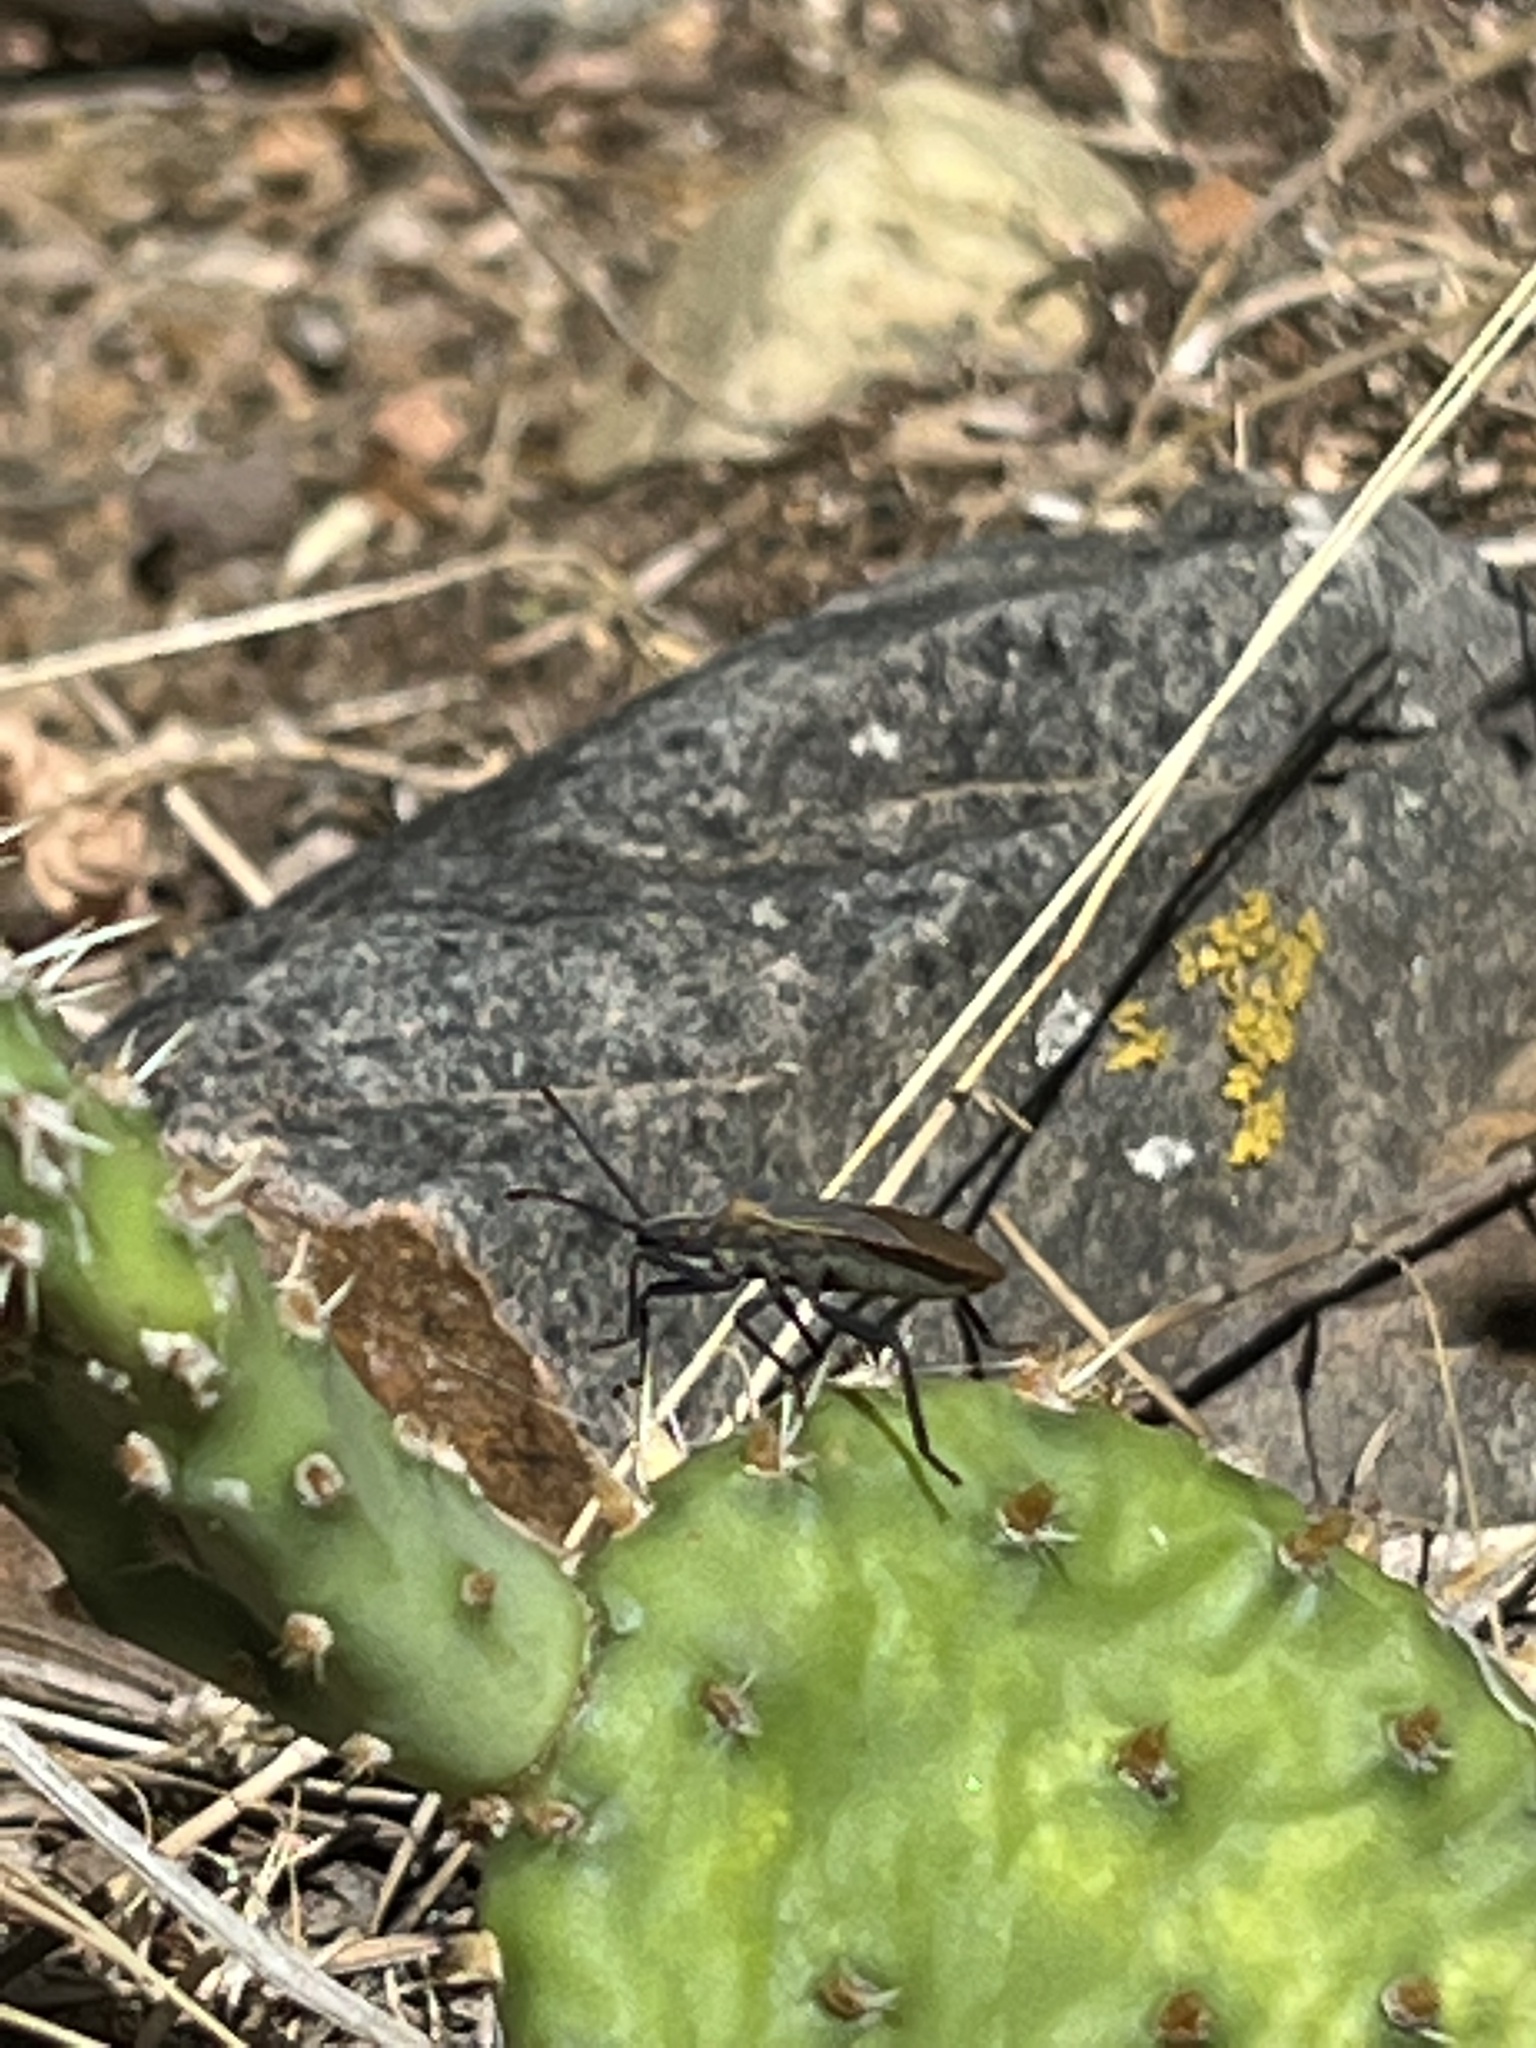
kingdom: Animalia
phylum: Arthropoda
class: Insecta
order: Hemiptera
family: Coreidae
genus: Chelinidea
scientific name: Chelinidea vittiger
